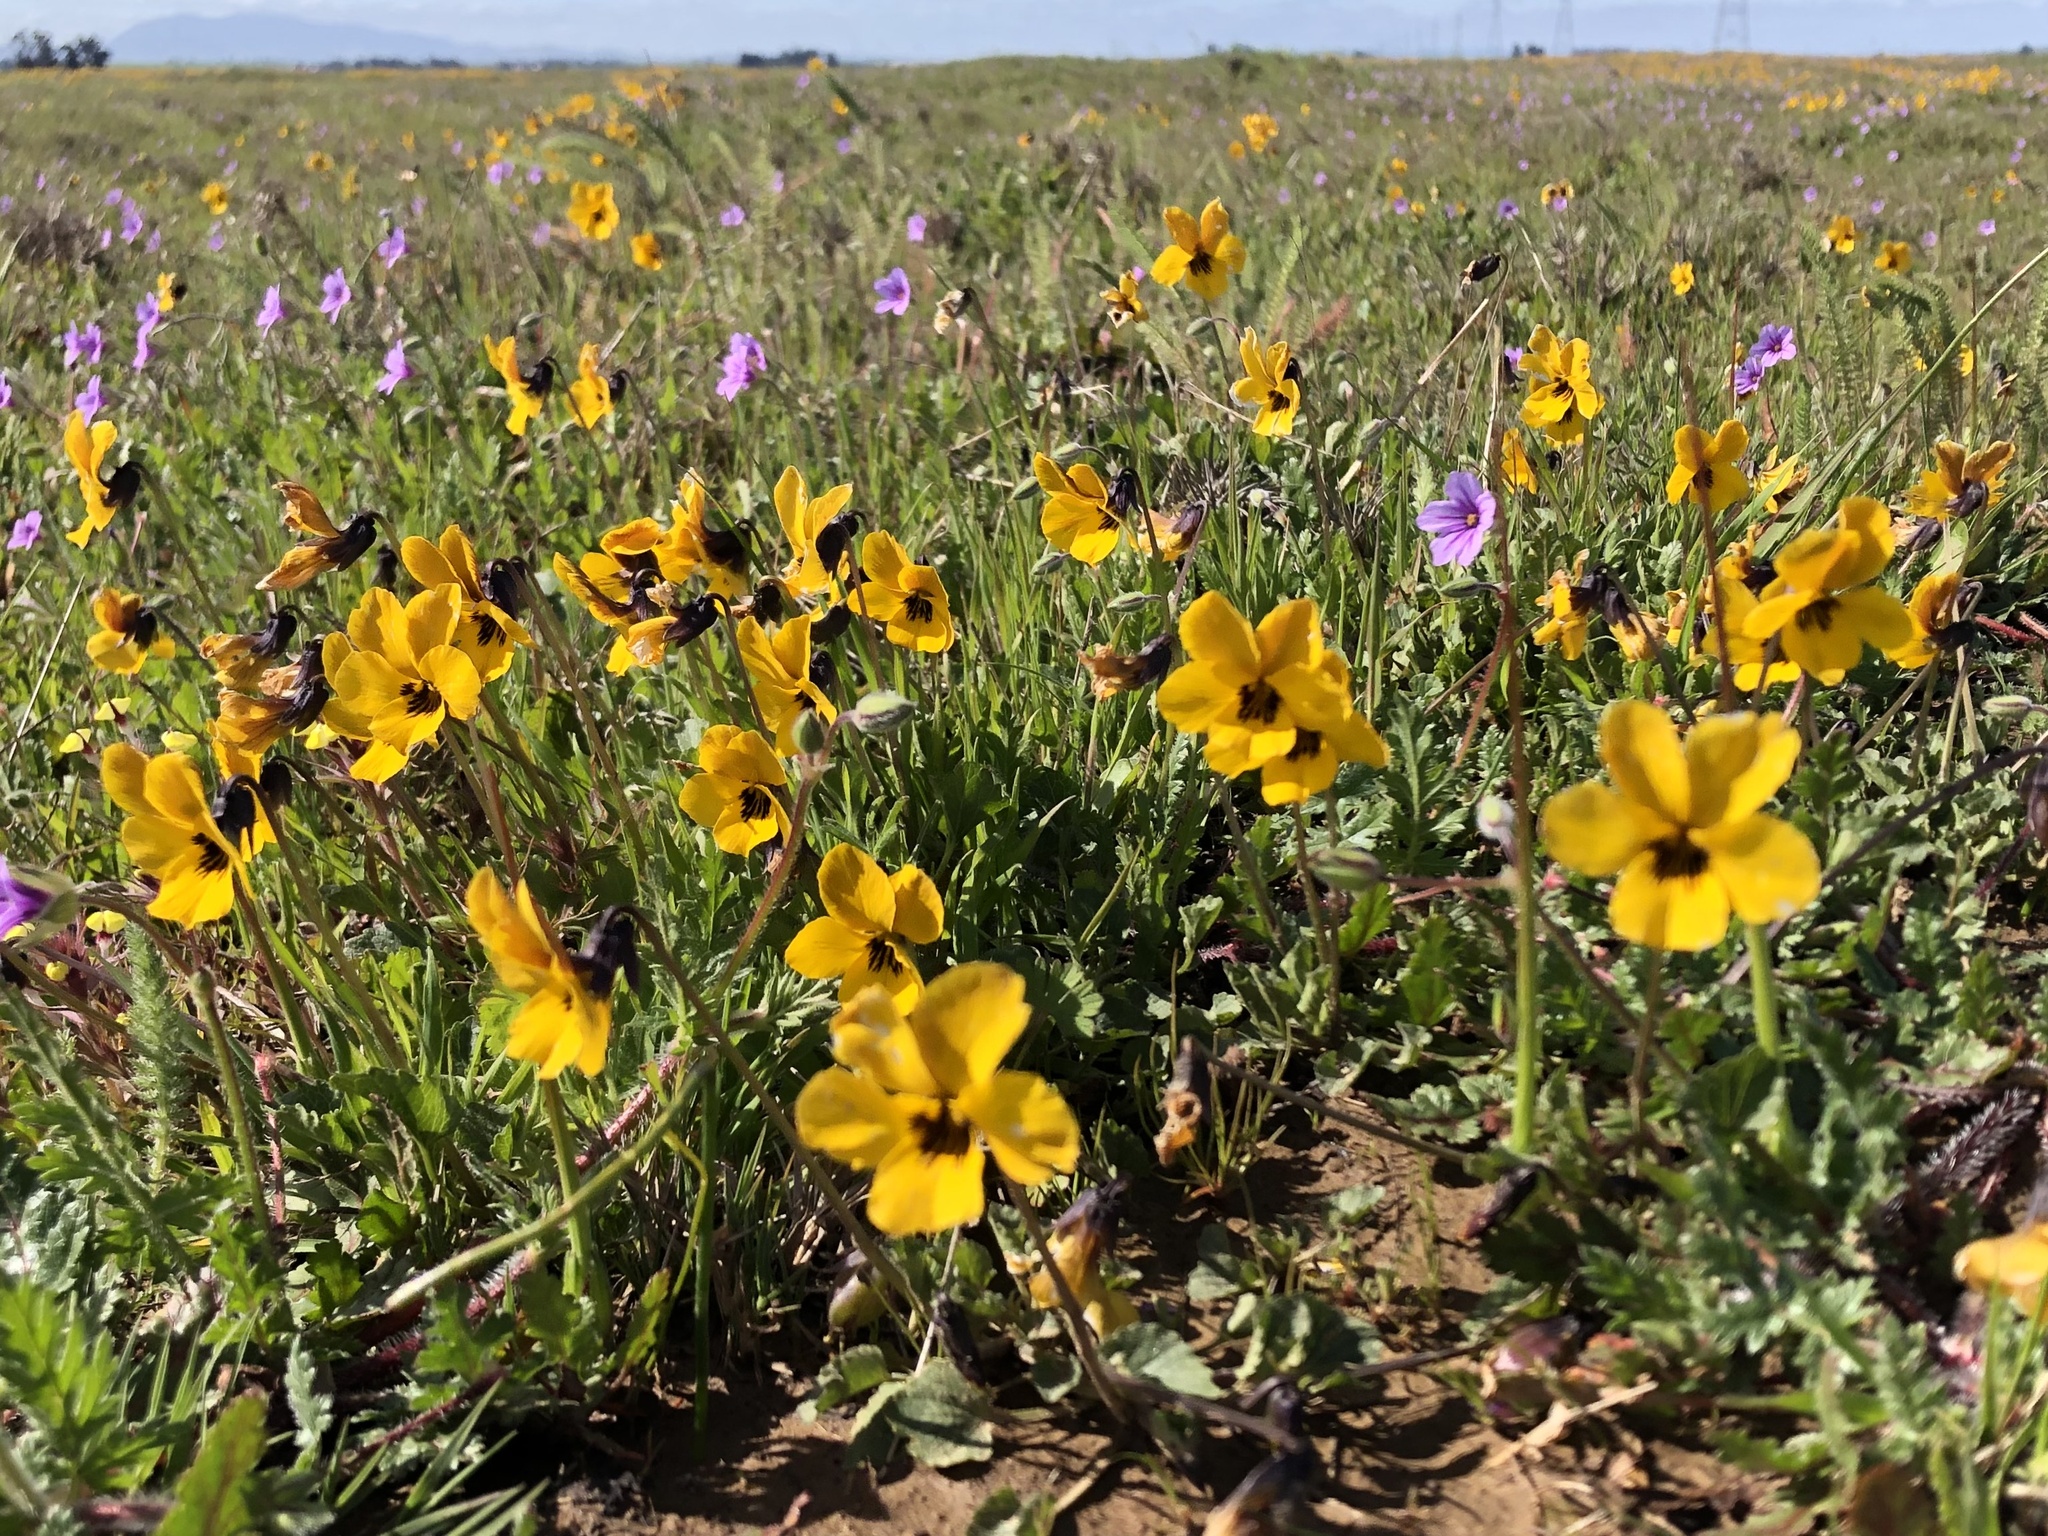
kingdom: Plantae
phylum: Tracheophyta
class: Magnoliopsida
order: Malpighiales
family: Violaceae
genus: Viola
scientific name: Viola pedunculata
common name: California golden violet
